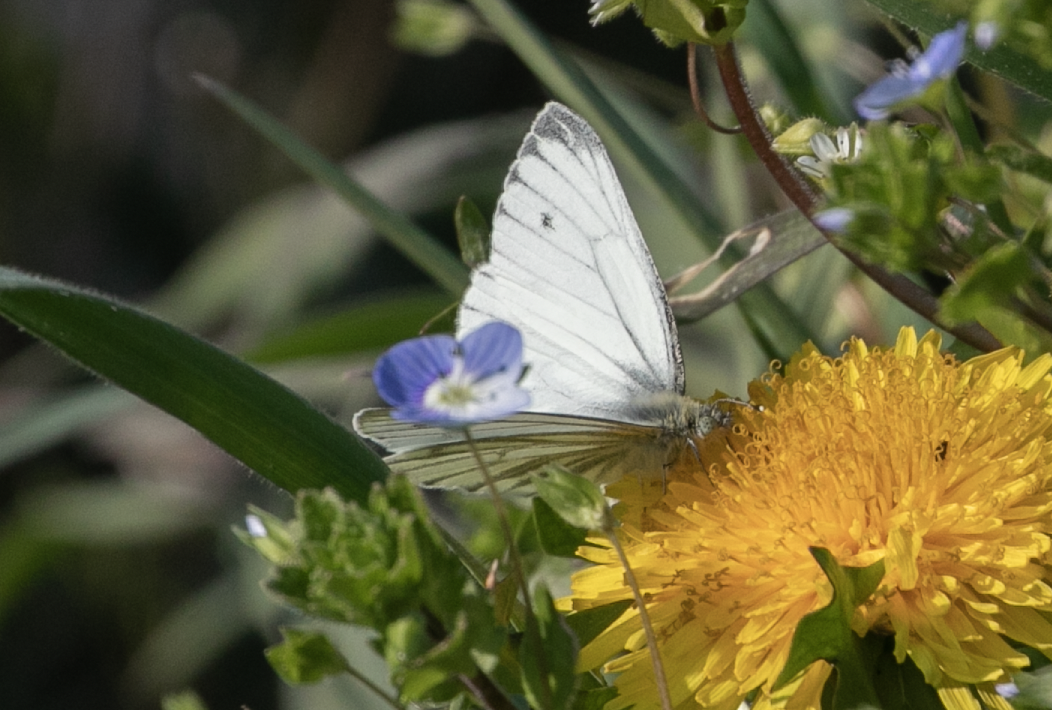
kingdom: Animalia
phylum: Arthropoda
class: Insecta
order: Lepidoptera
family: Pieridae
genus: Pieris
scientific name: Pieris napi
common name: Green-veined white
